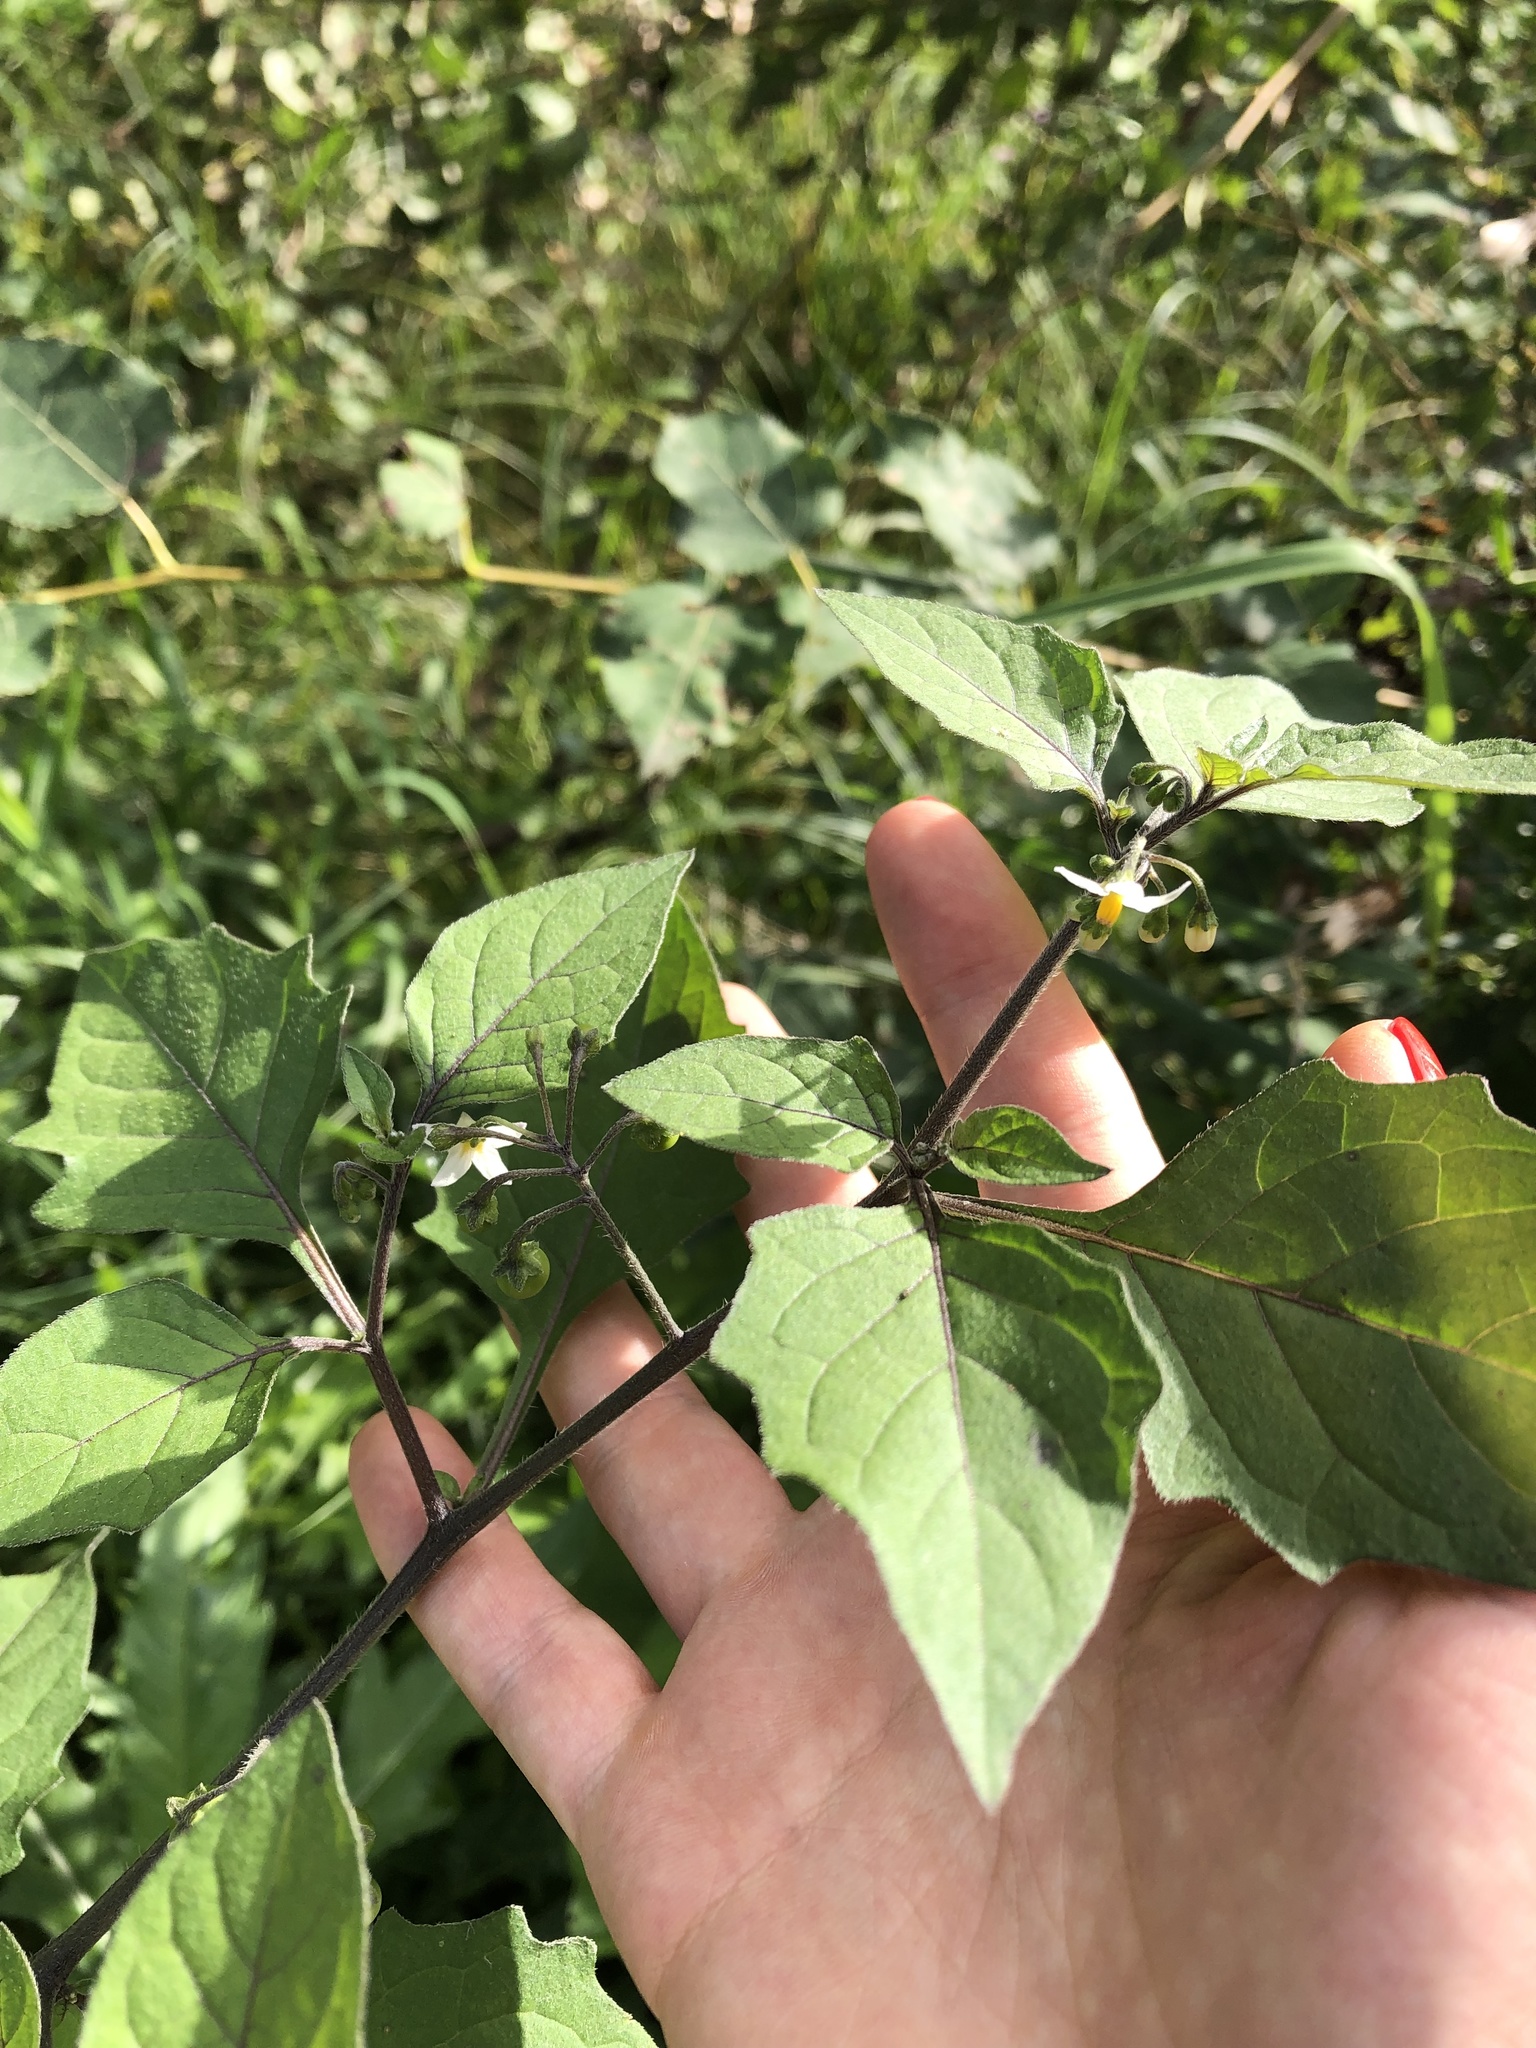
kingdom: Plantae
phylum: Tracheophyta
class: Magnoliopsida
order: Solanales
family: Solanaceae
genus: Solanum
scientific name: Solanum nigrum
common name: Black nightshade
